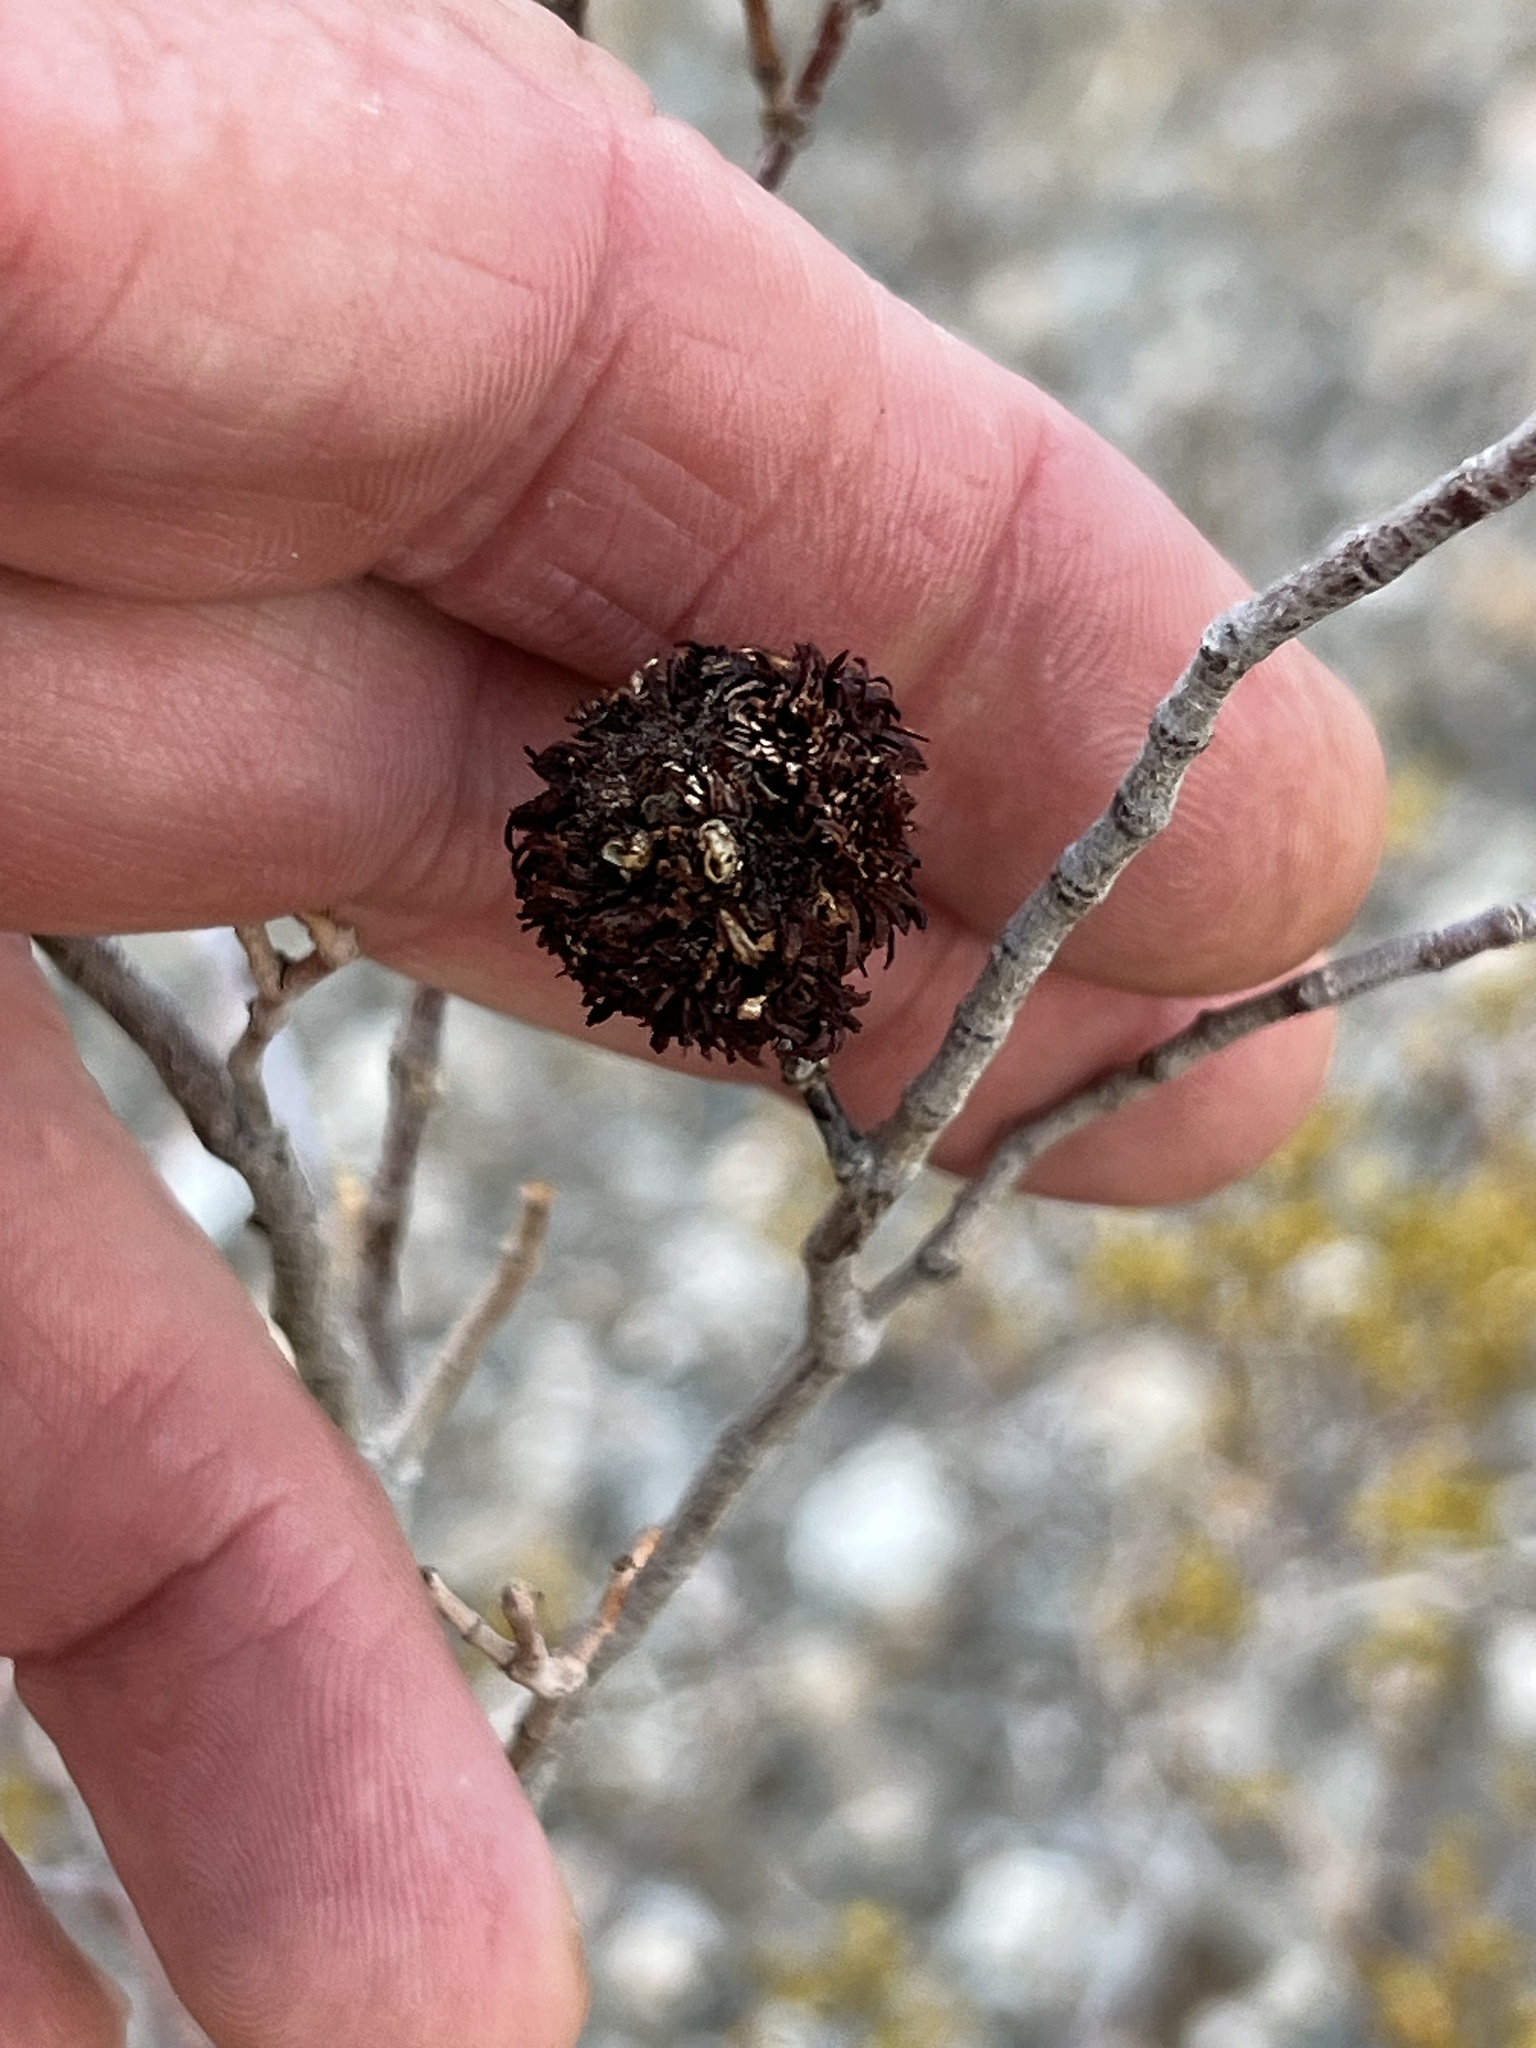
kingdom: Animalia
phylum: Arthropoda
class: Insecta
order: Diptera
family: Cecidomyiidae
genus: Asphondylia
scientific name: Asphondylia auripila
